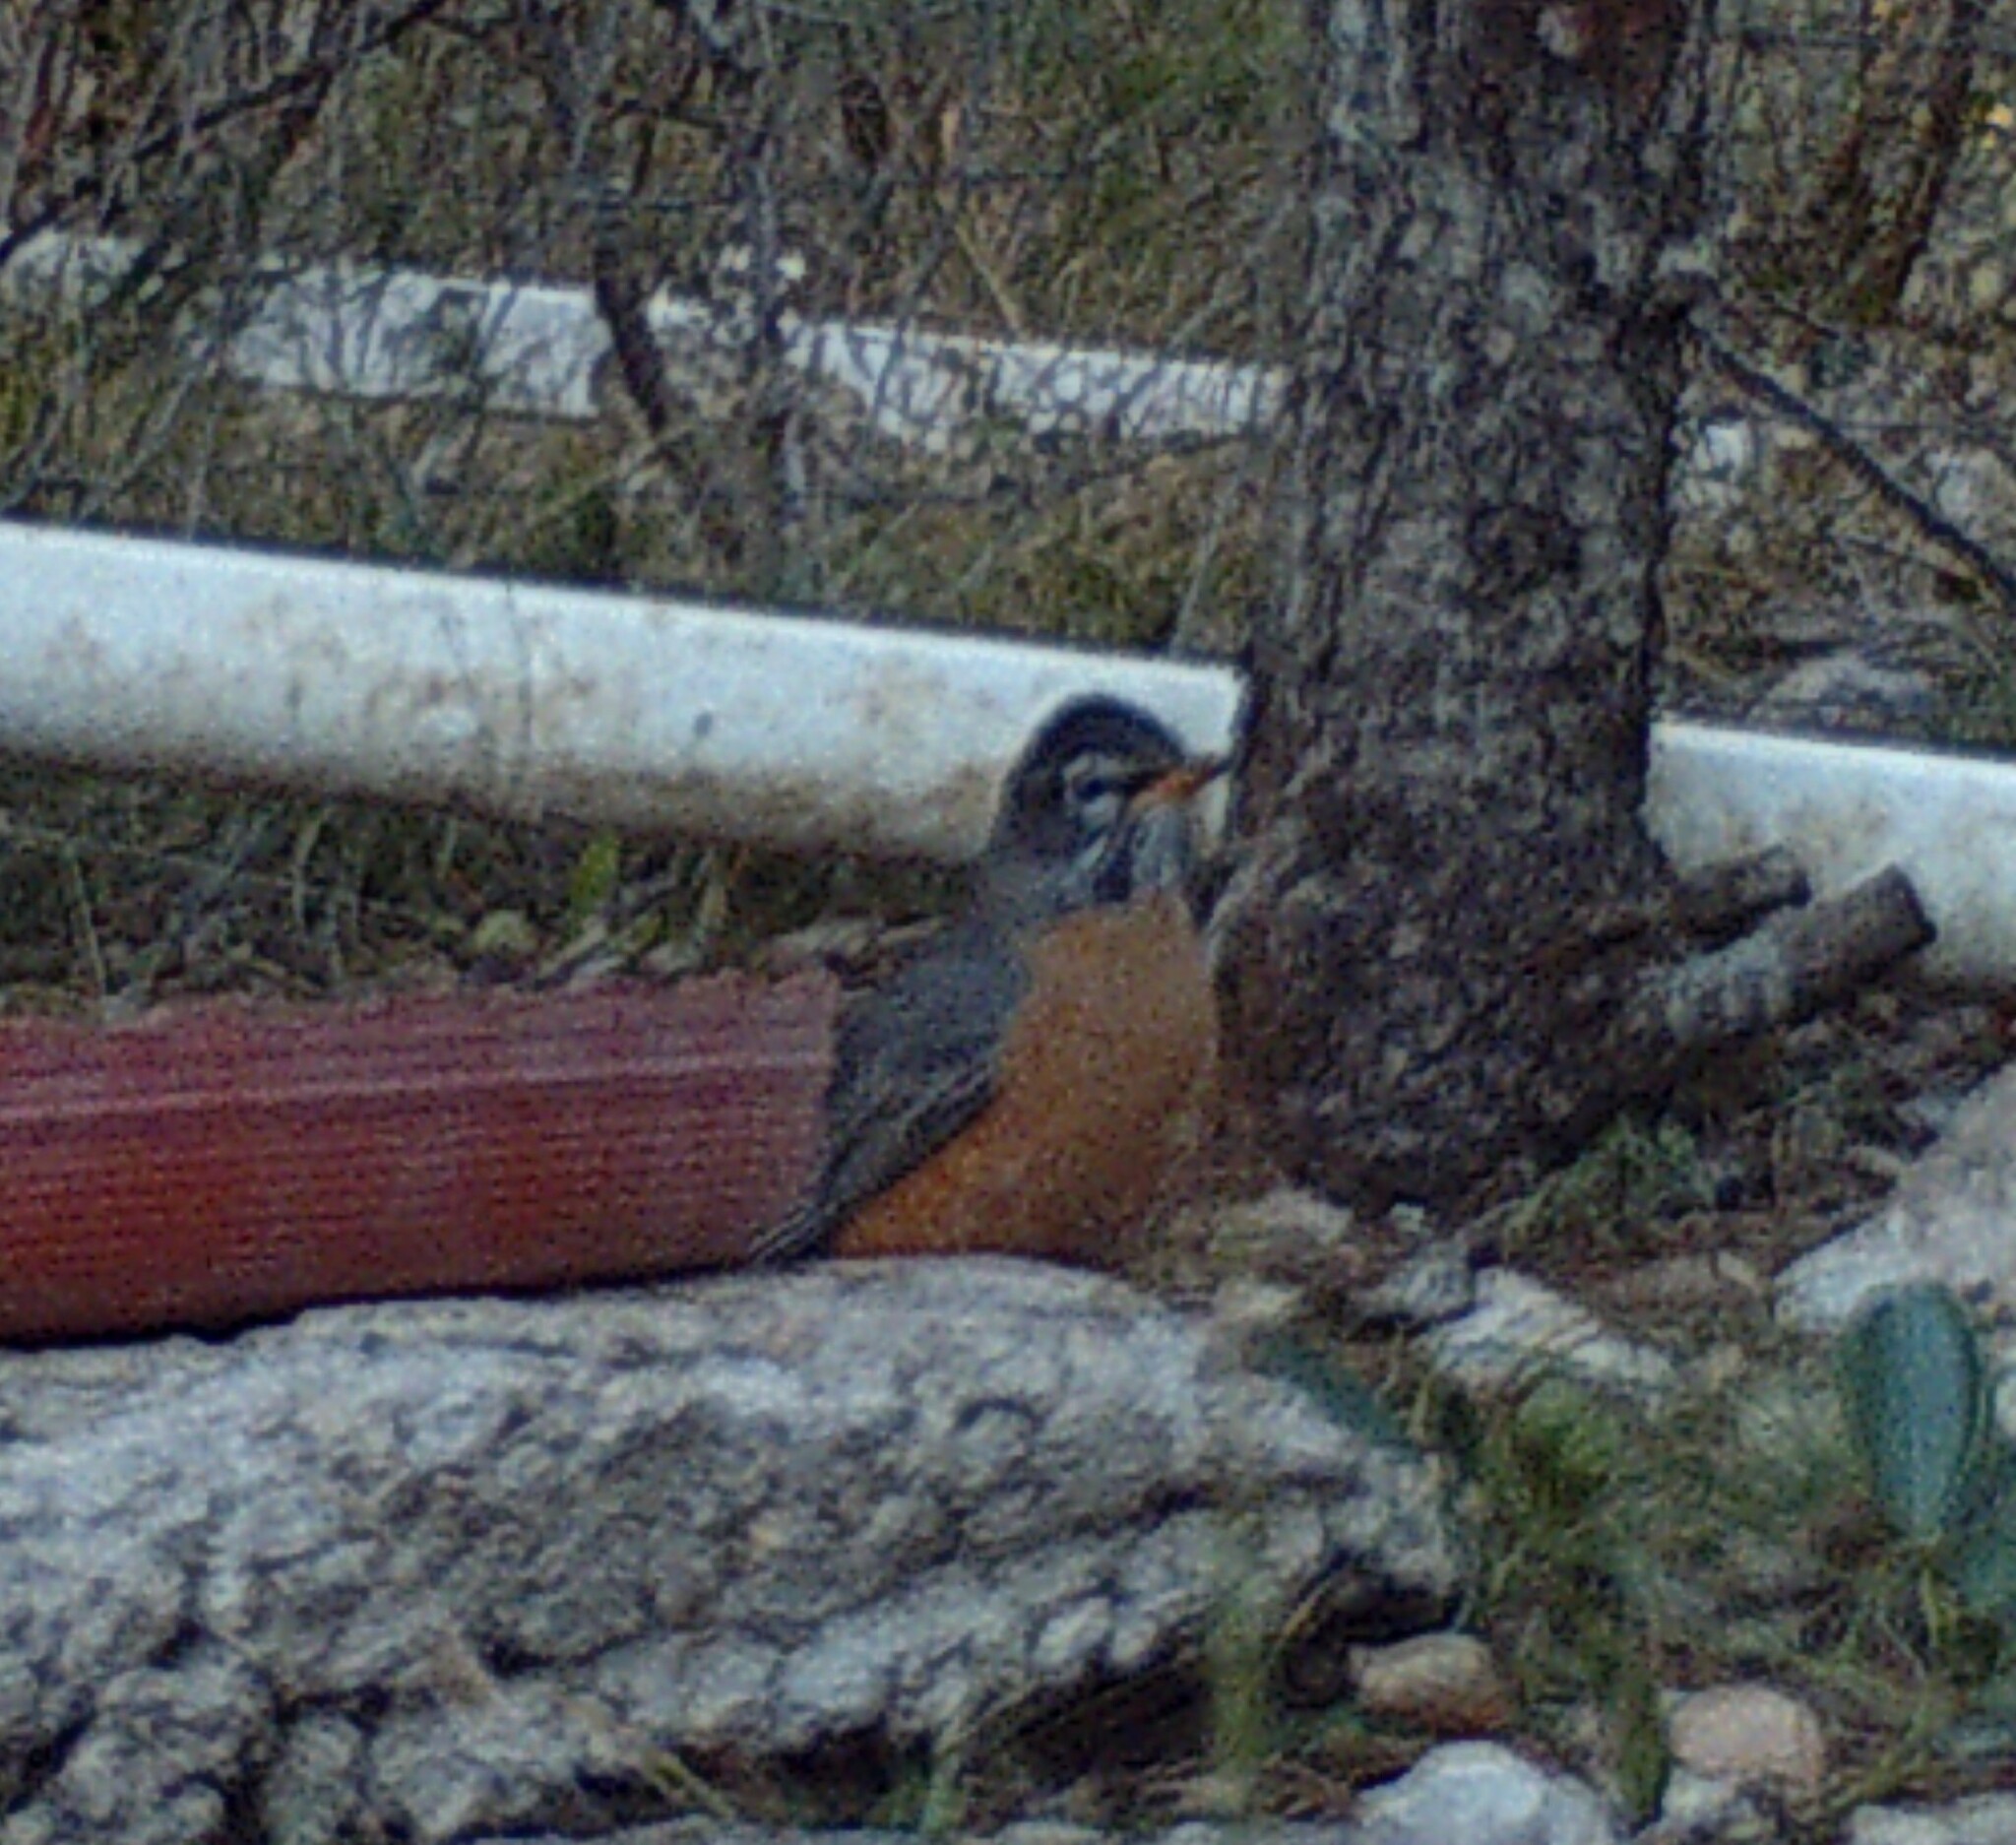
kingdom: Animalia
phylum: Chordata
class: Aves
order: Passeriformes
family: Turdidae
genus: Turdus
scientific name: Turdus migratorius
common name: American robin
